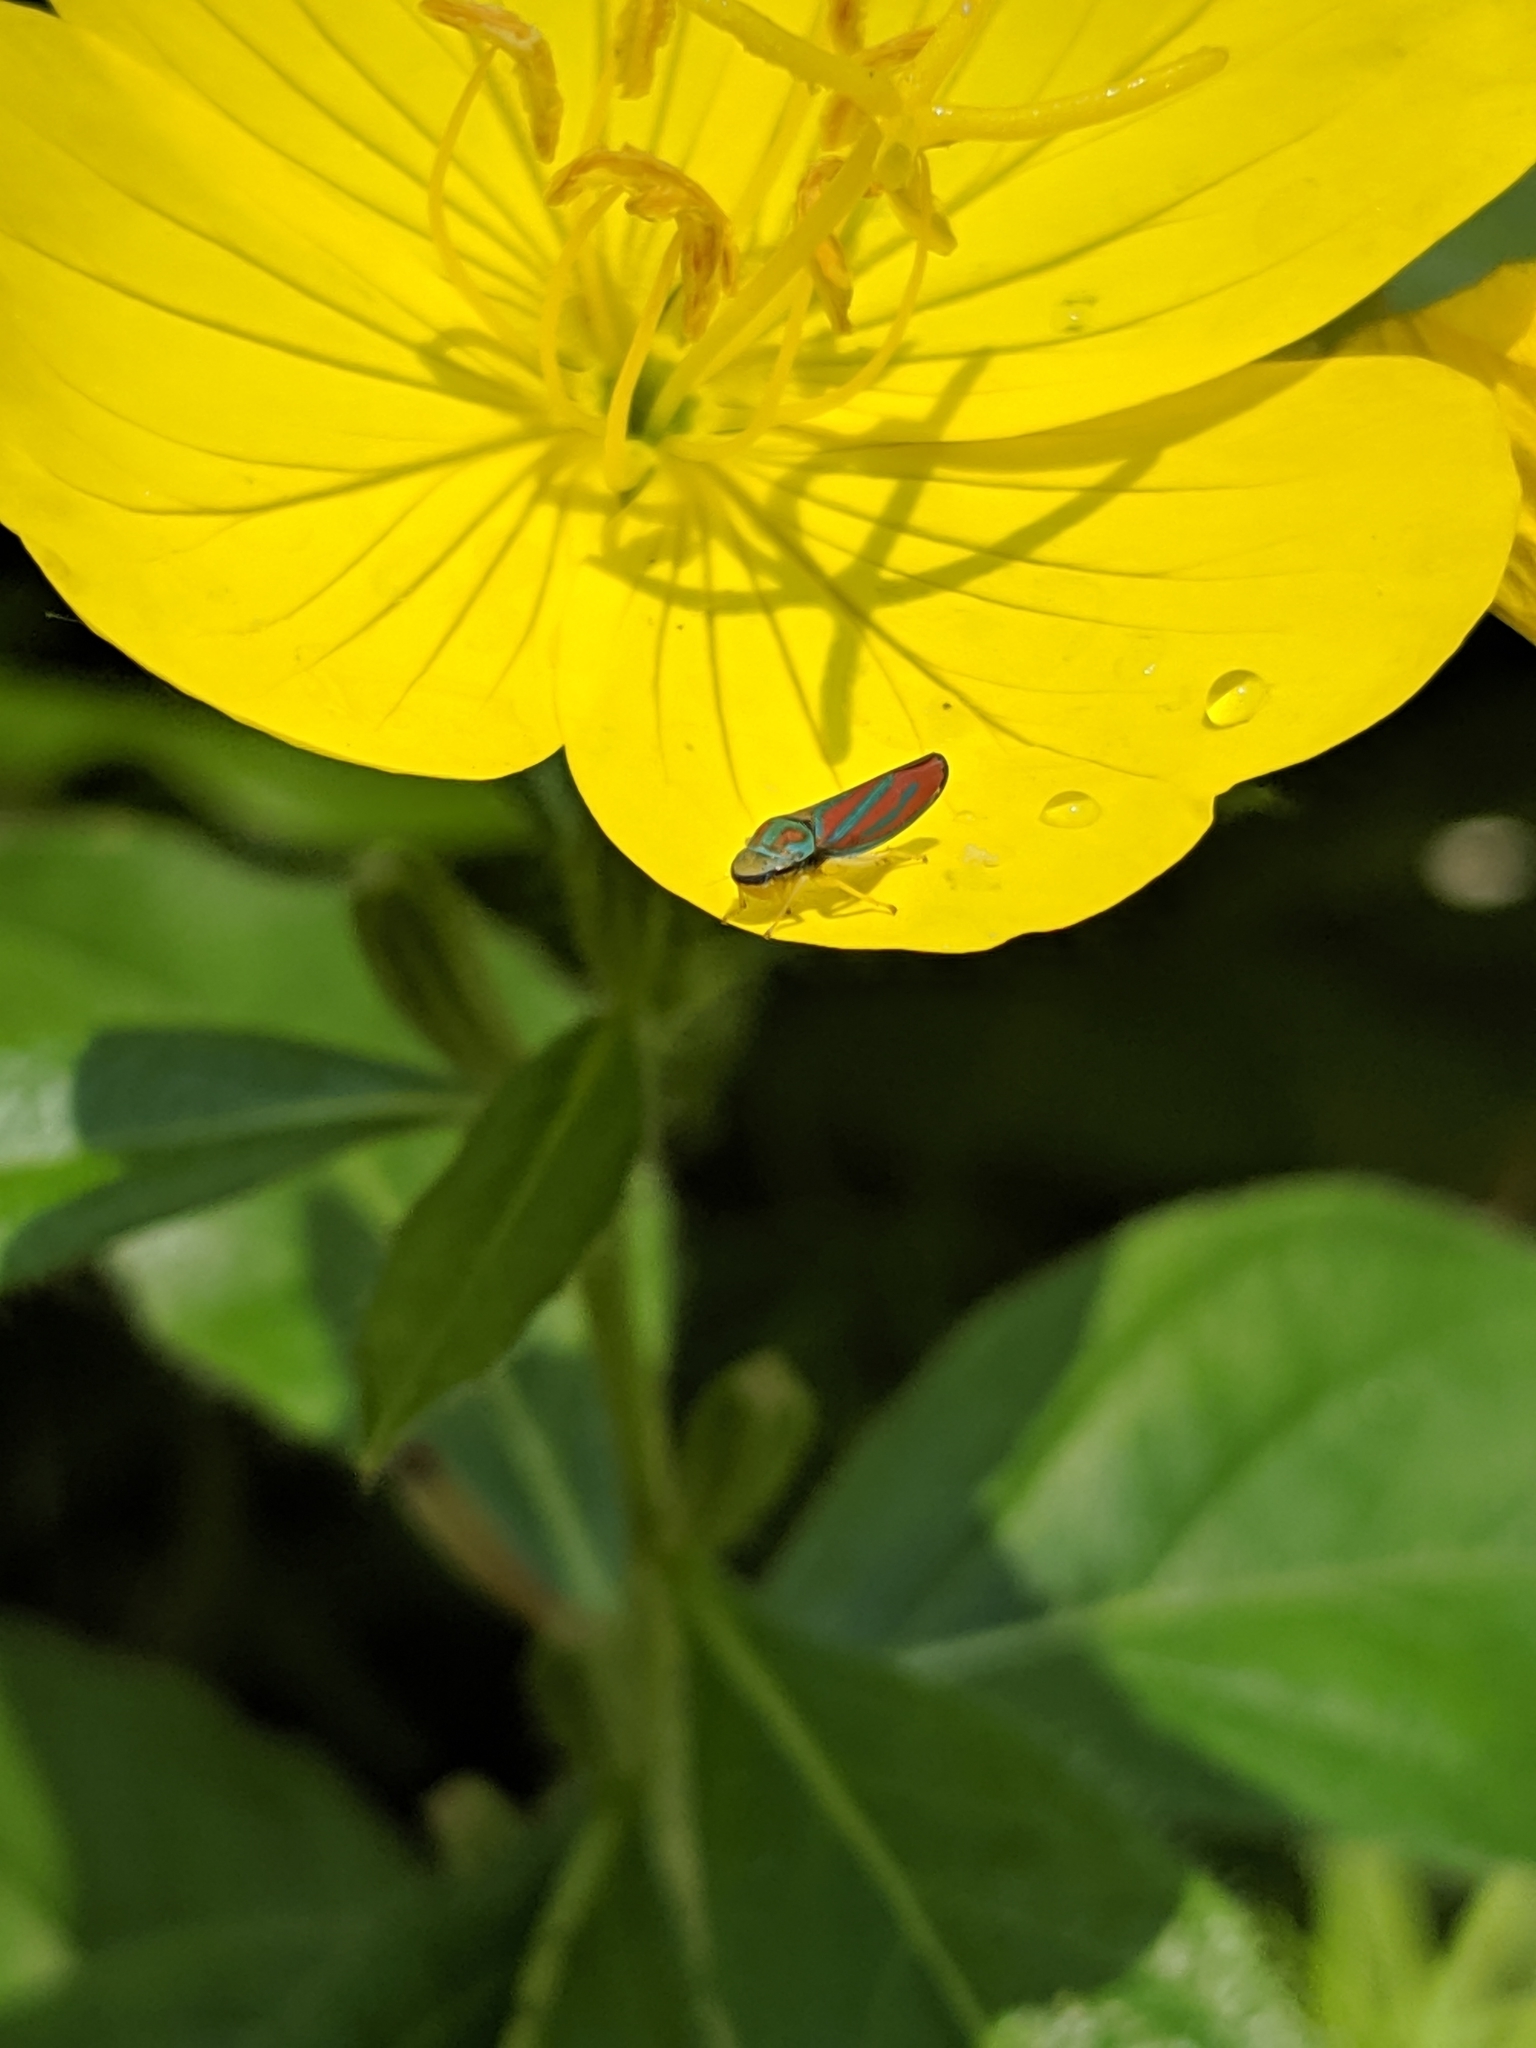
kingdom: Animalia
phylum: Arthropoda
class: Insecta
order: Hemiptera
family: Cicadellidae
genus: Graphocephala
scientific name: Graphocephala coccinea
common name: Candy-striped leafhopper
